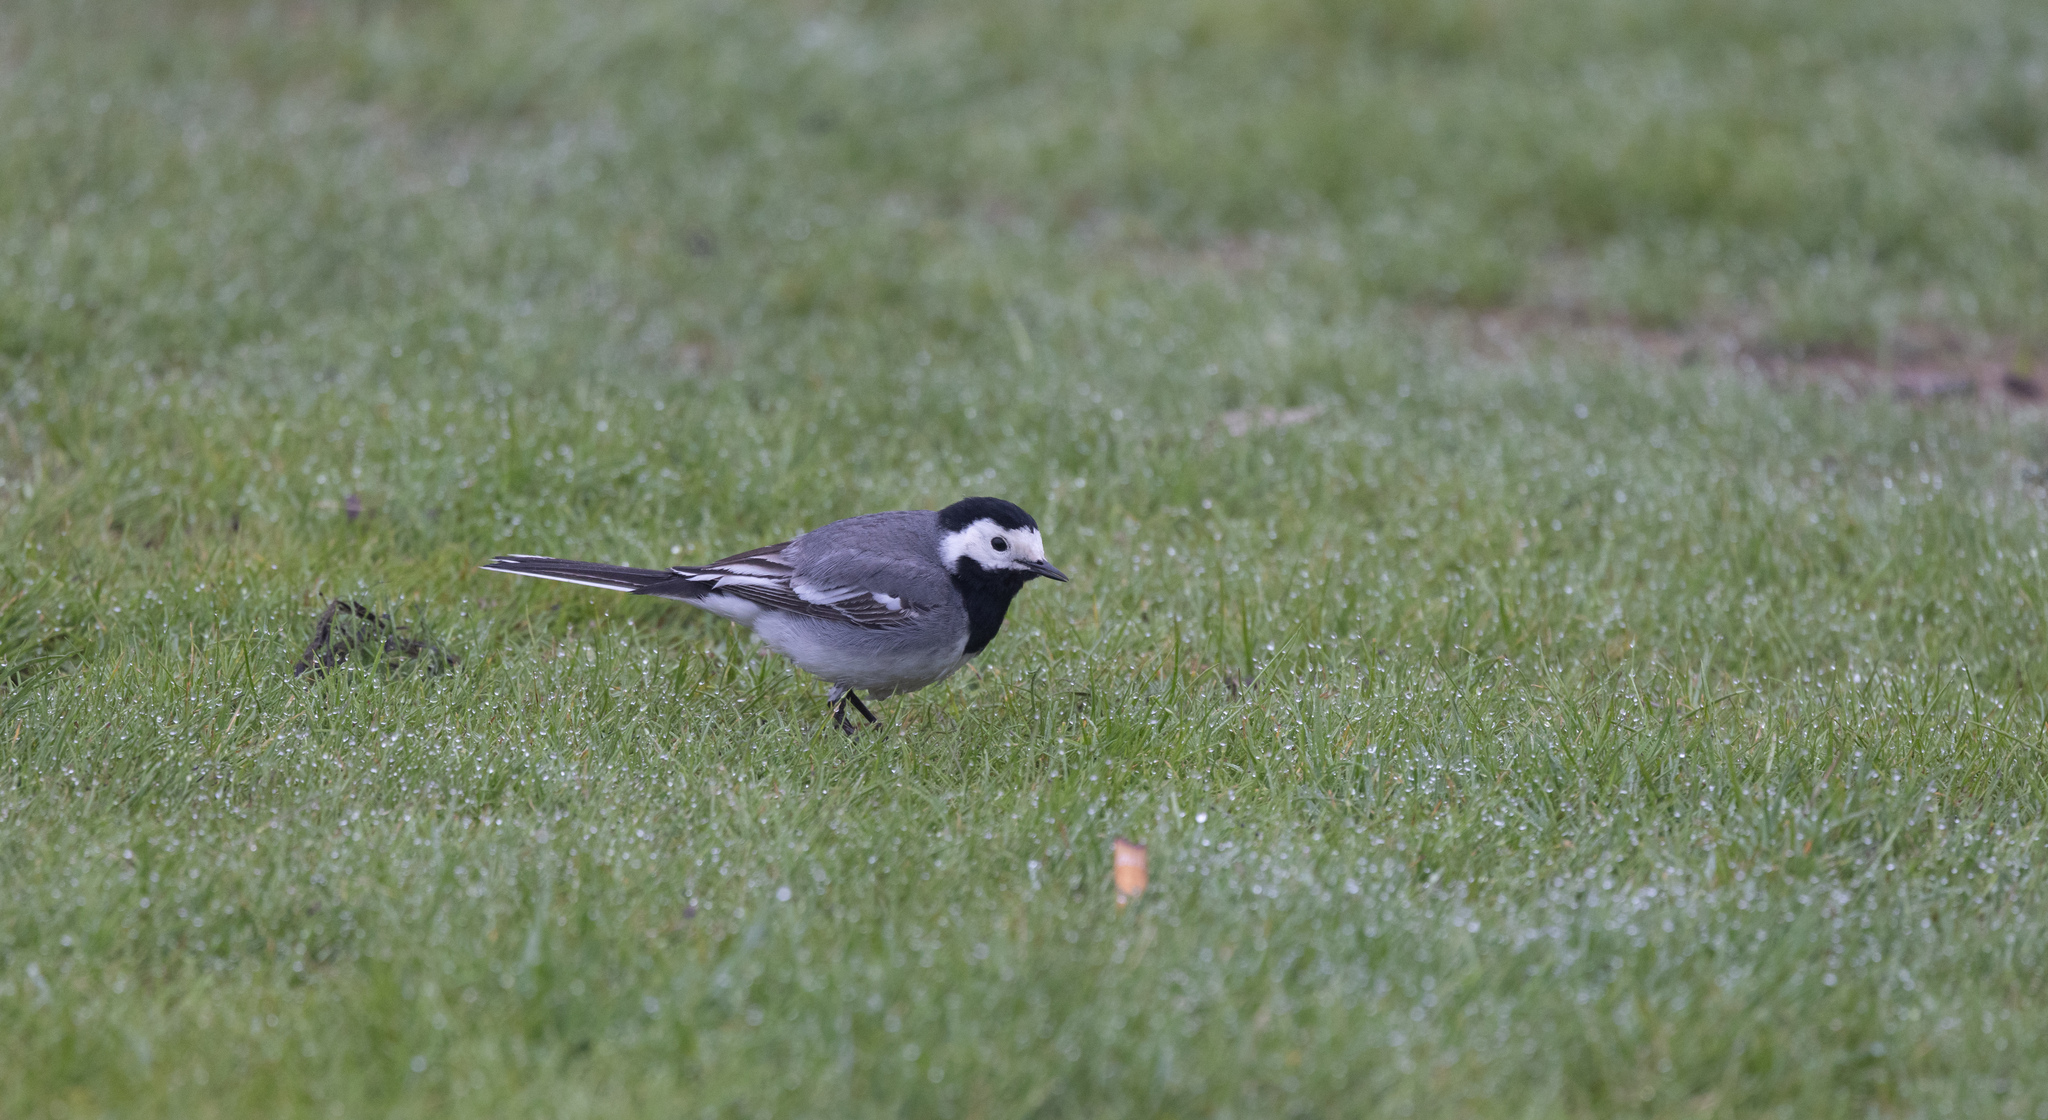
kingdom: Animalia
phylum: Chordata
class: Aves
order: Passeriformes
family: Motacillidae
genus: Motacilla
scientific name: Motacilla alba
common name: White wagtail
